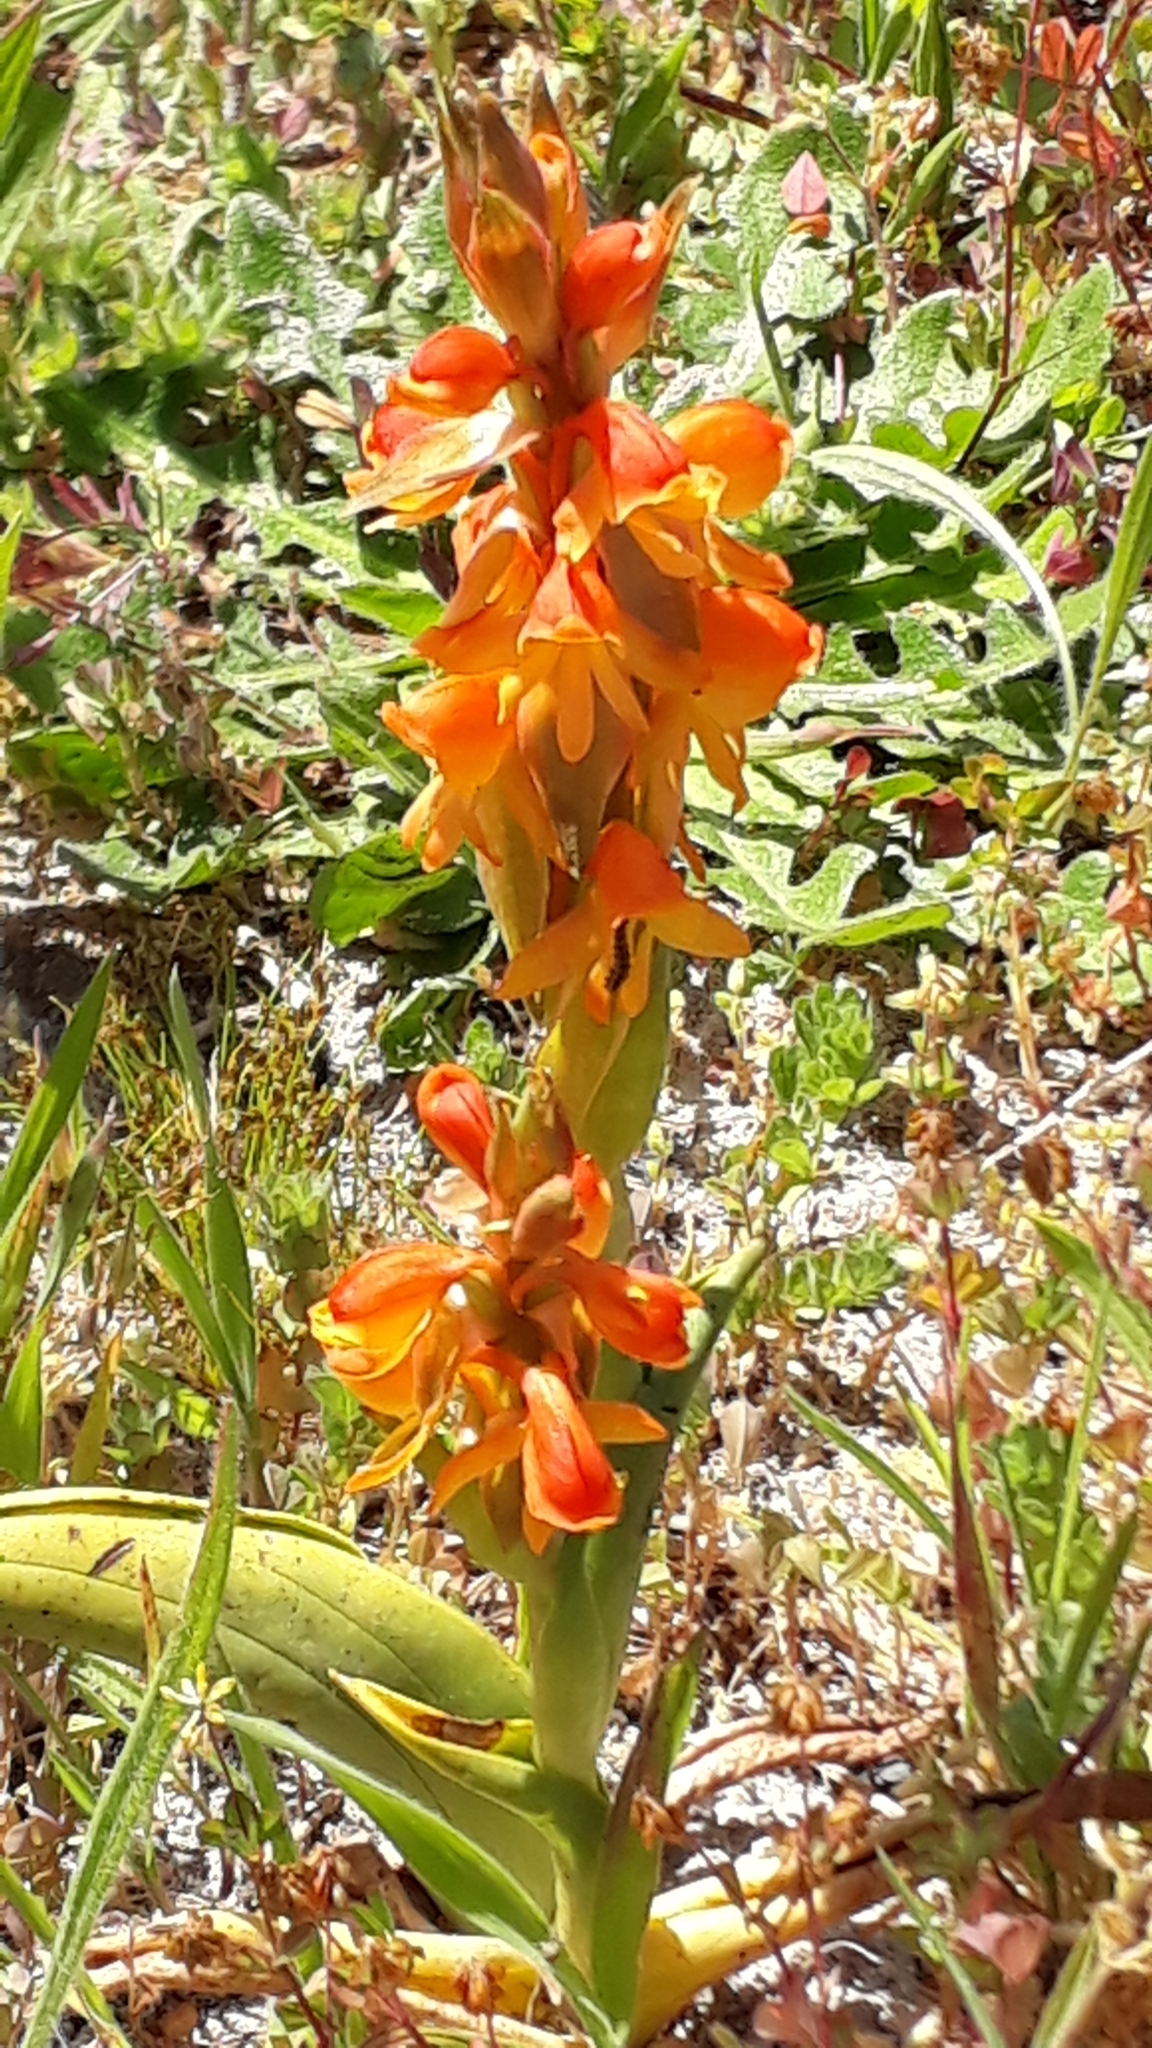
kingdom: Plantae
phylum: Tracheophyta
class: Liliopsida
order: Asparagales
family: Orchidaceae
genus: Satyrium
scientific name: Satyrium coriifolium
